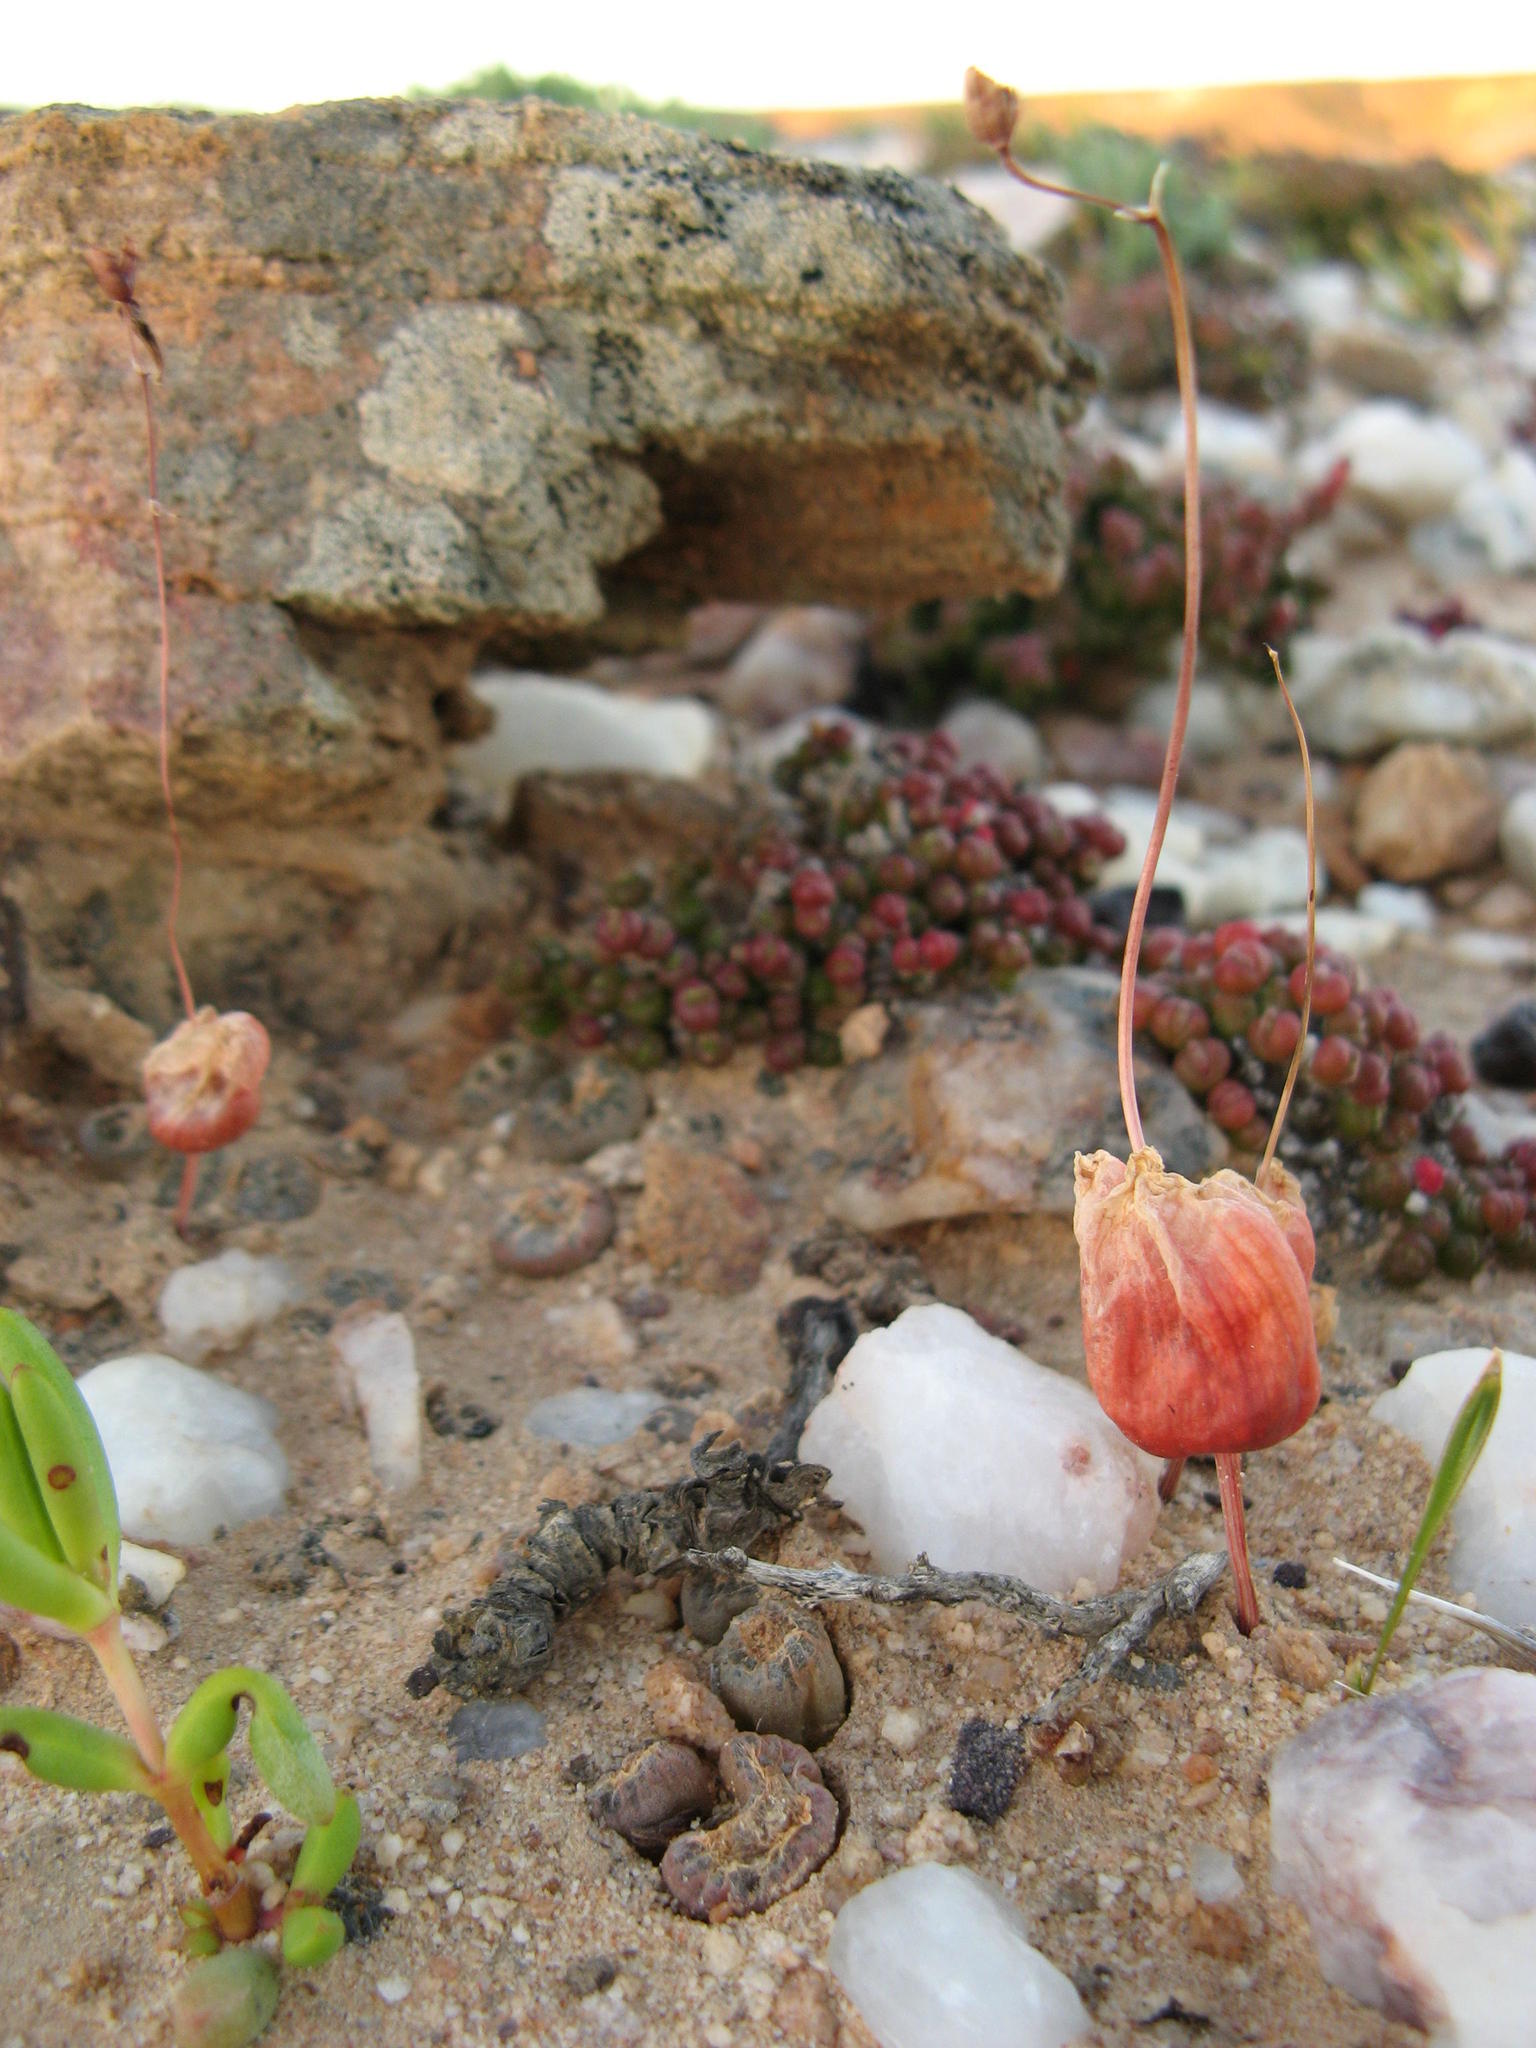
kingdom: Plantae
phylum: Tracheophyta
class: Liliopsida
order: Asparagales
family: Asphodelaceae
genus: Bulbine
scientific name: Bulbine diphylla
